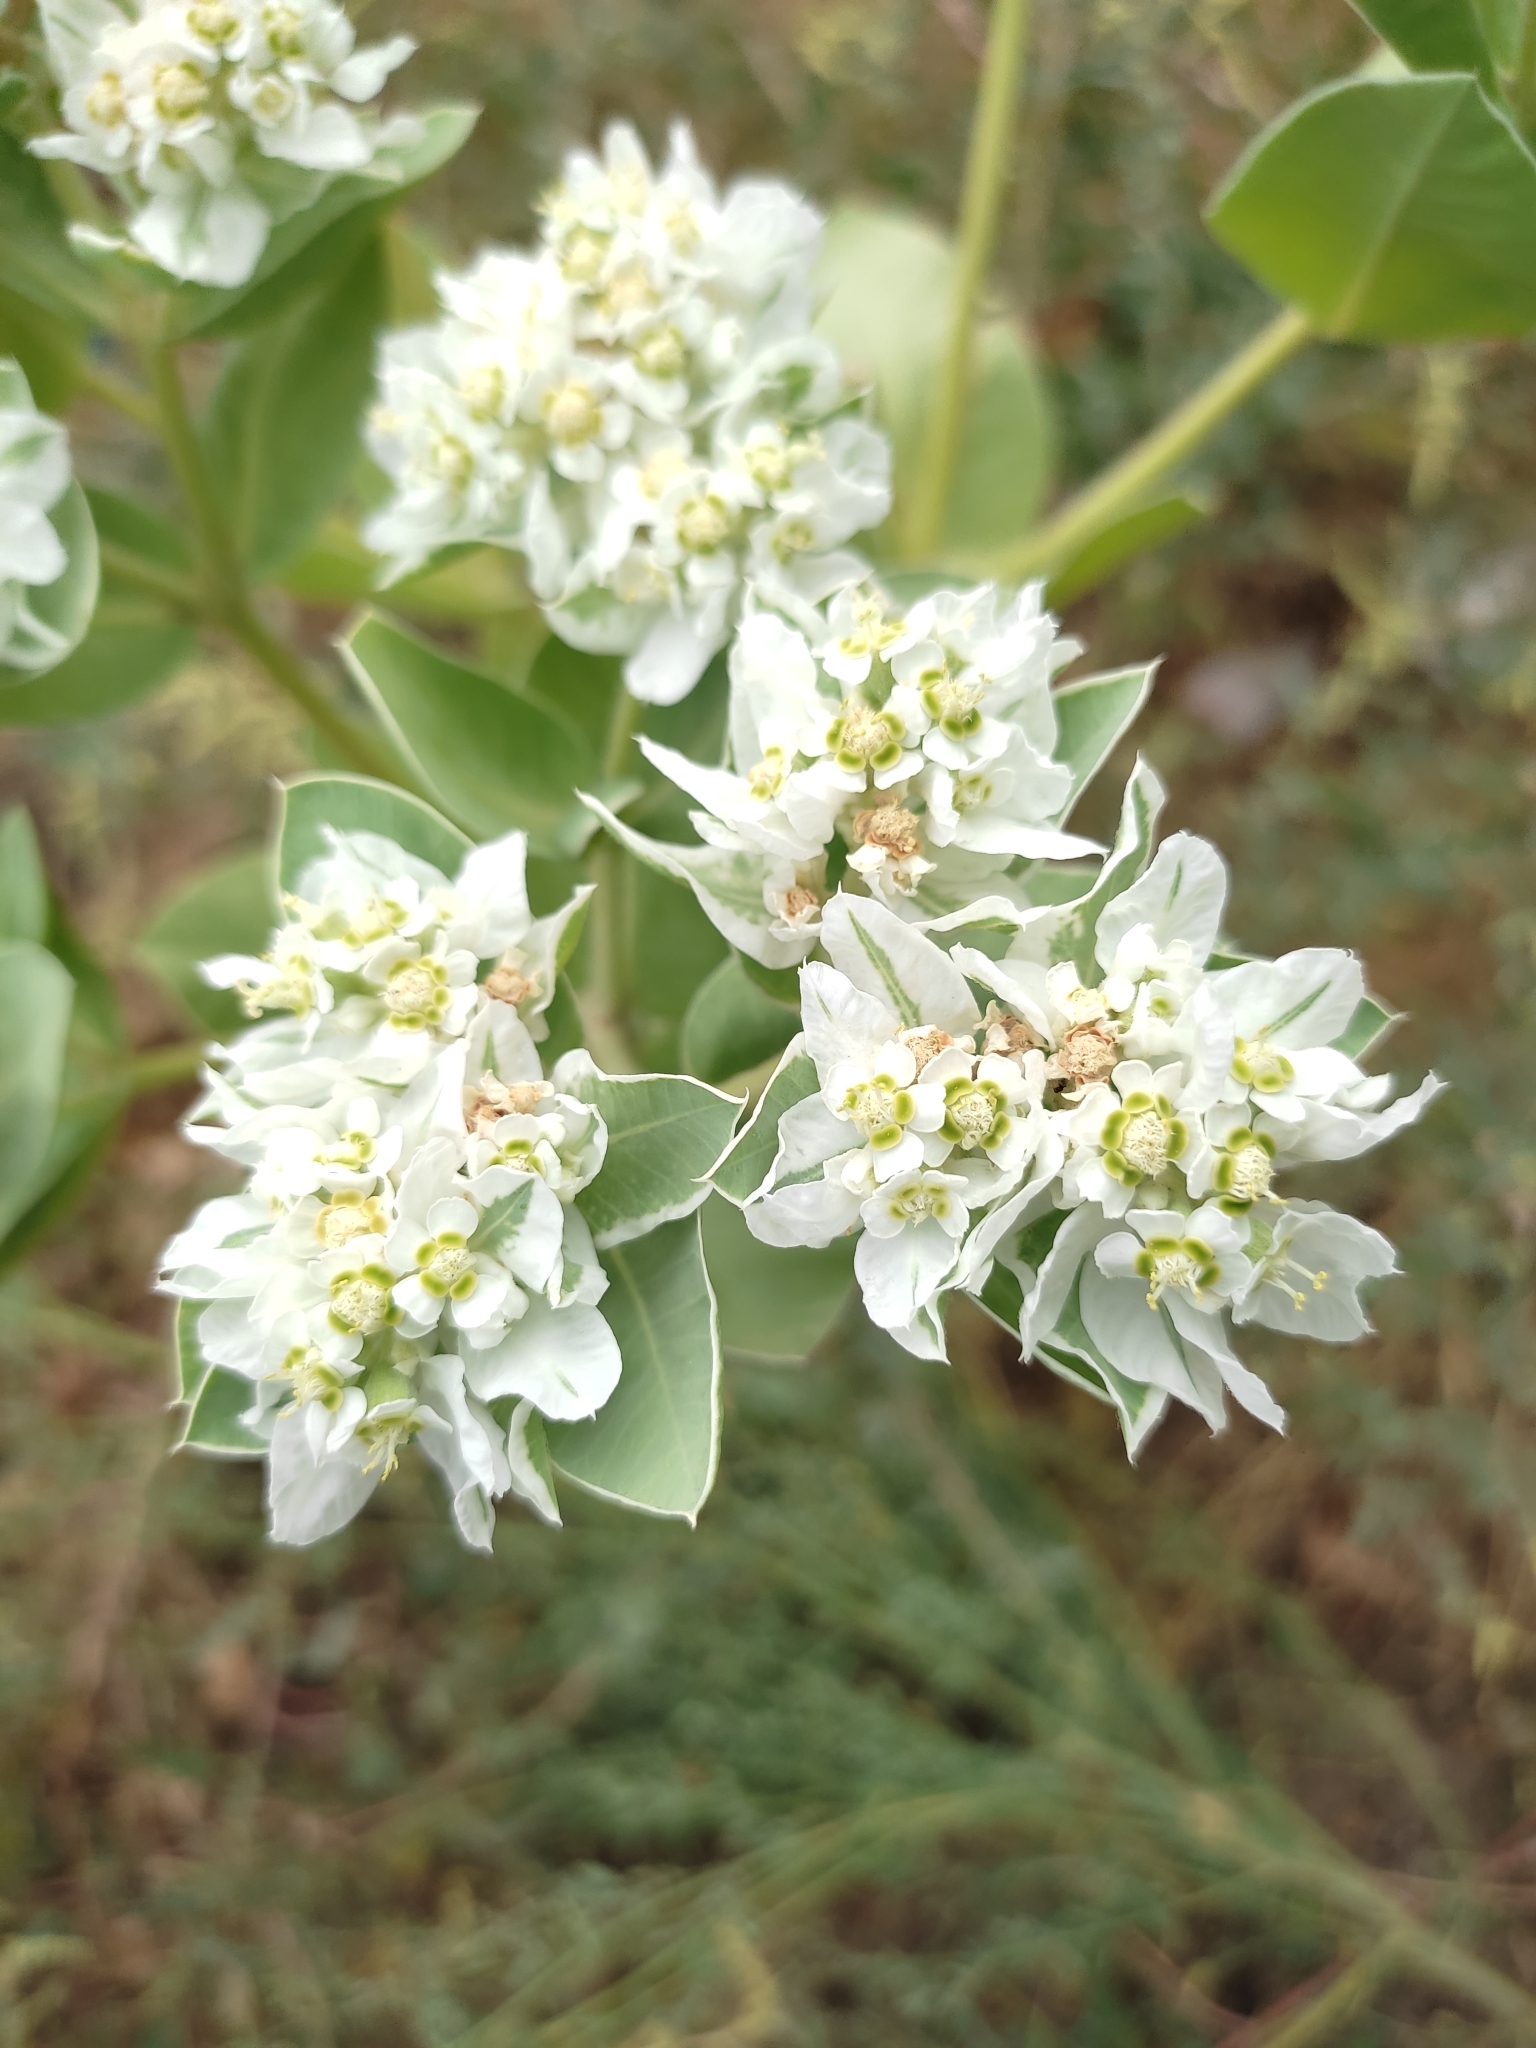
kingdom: Plantae
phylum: Tracheophyta
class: Magnoliopsida
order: Malpighiales
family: Euphorbiaceae
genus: Euphorbia
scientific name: Euphorbia marginata
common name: Ghostweed
